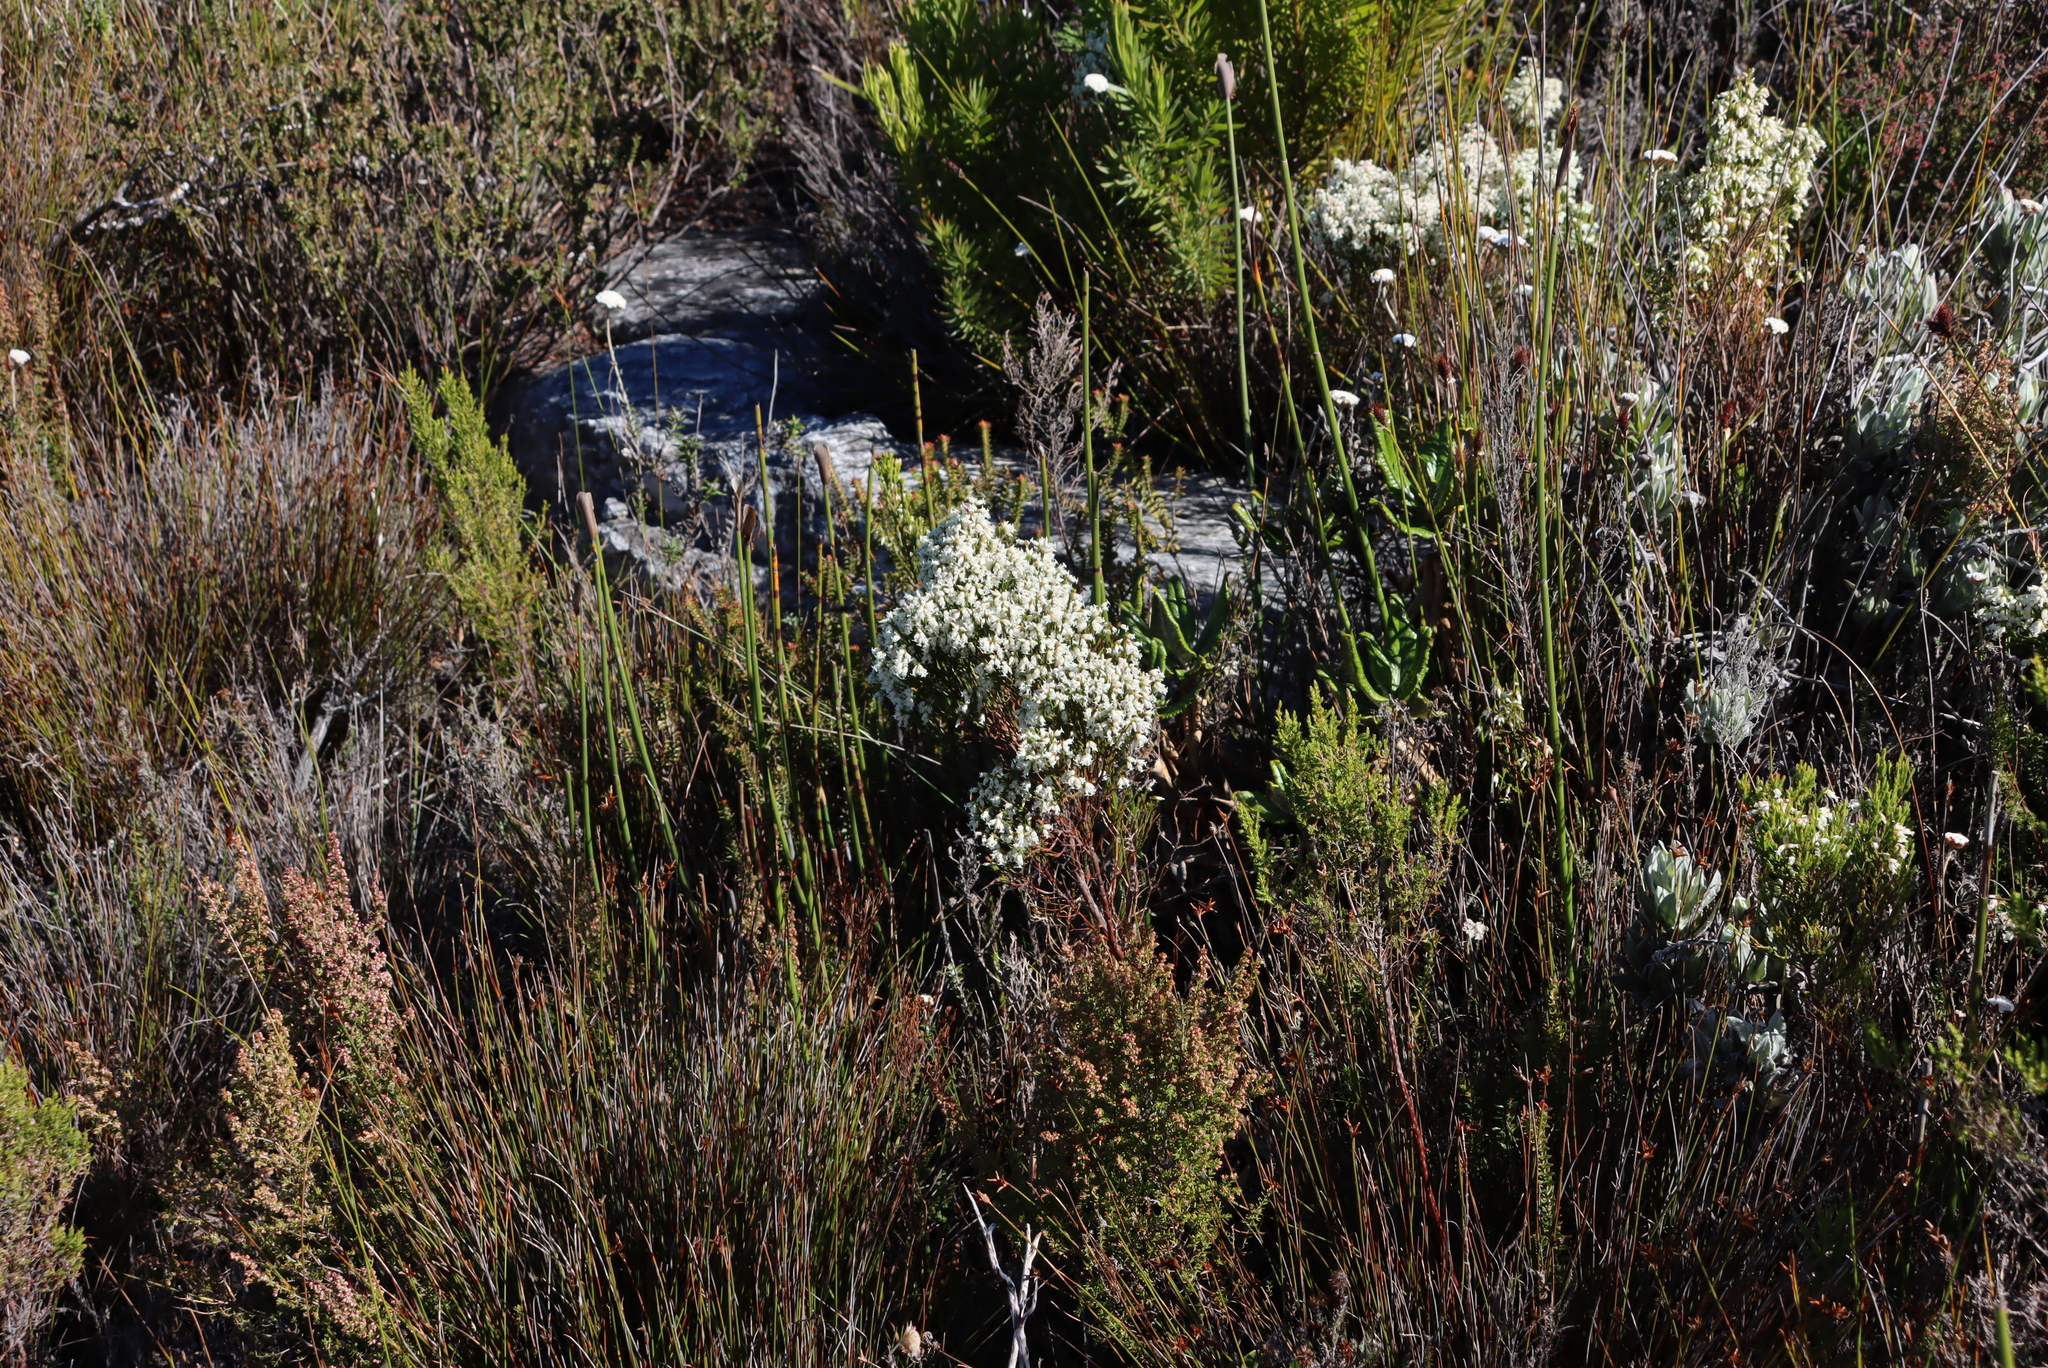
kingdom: Plantae
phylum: Tracheophyta
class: Magnoliopsida
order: Ericales
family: Ericaceae
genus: Erica
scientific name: Erica lutea
